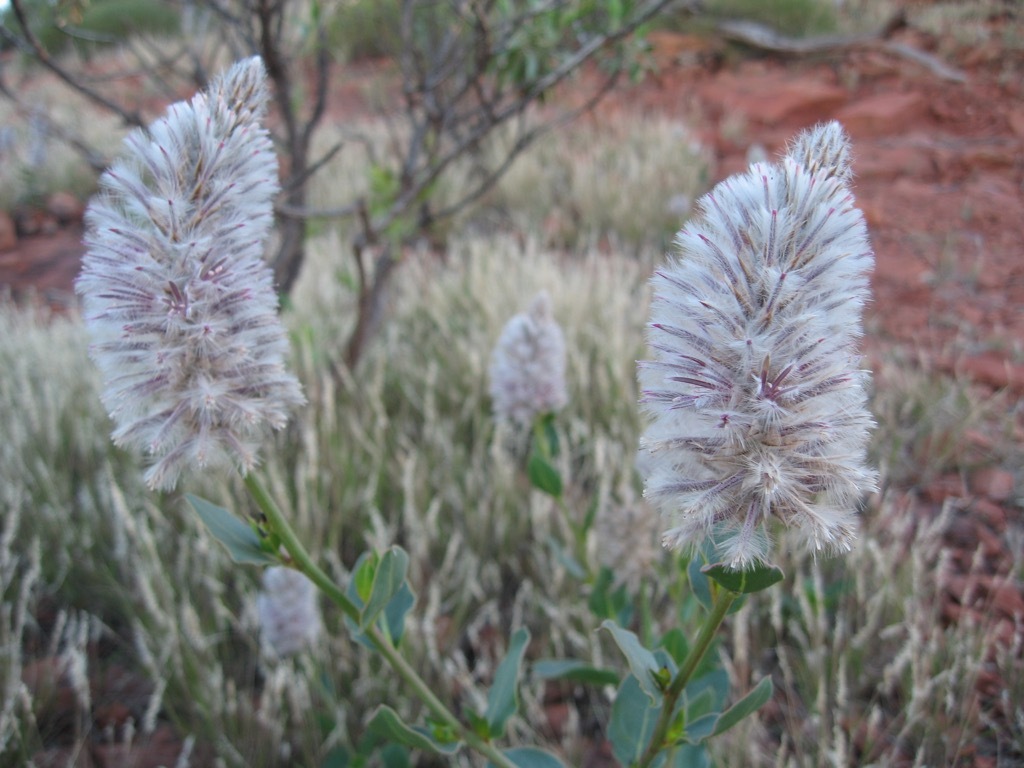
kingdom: Plantae
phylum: Tracheophyta
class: Magnoliopsida
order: Caryophyllales
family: Amaranthaceae
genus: Ptilotus
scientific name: Ptilotus nobilis
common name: Regal-foxtail
